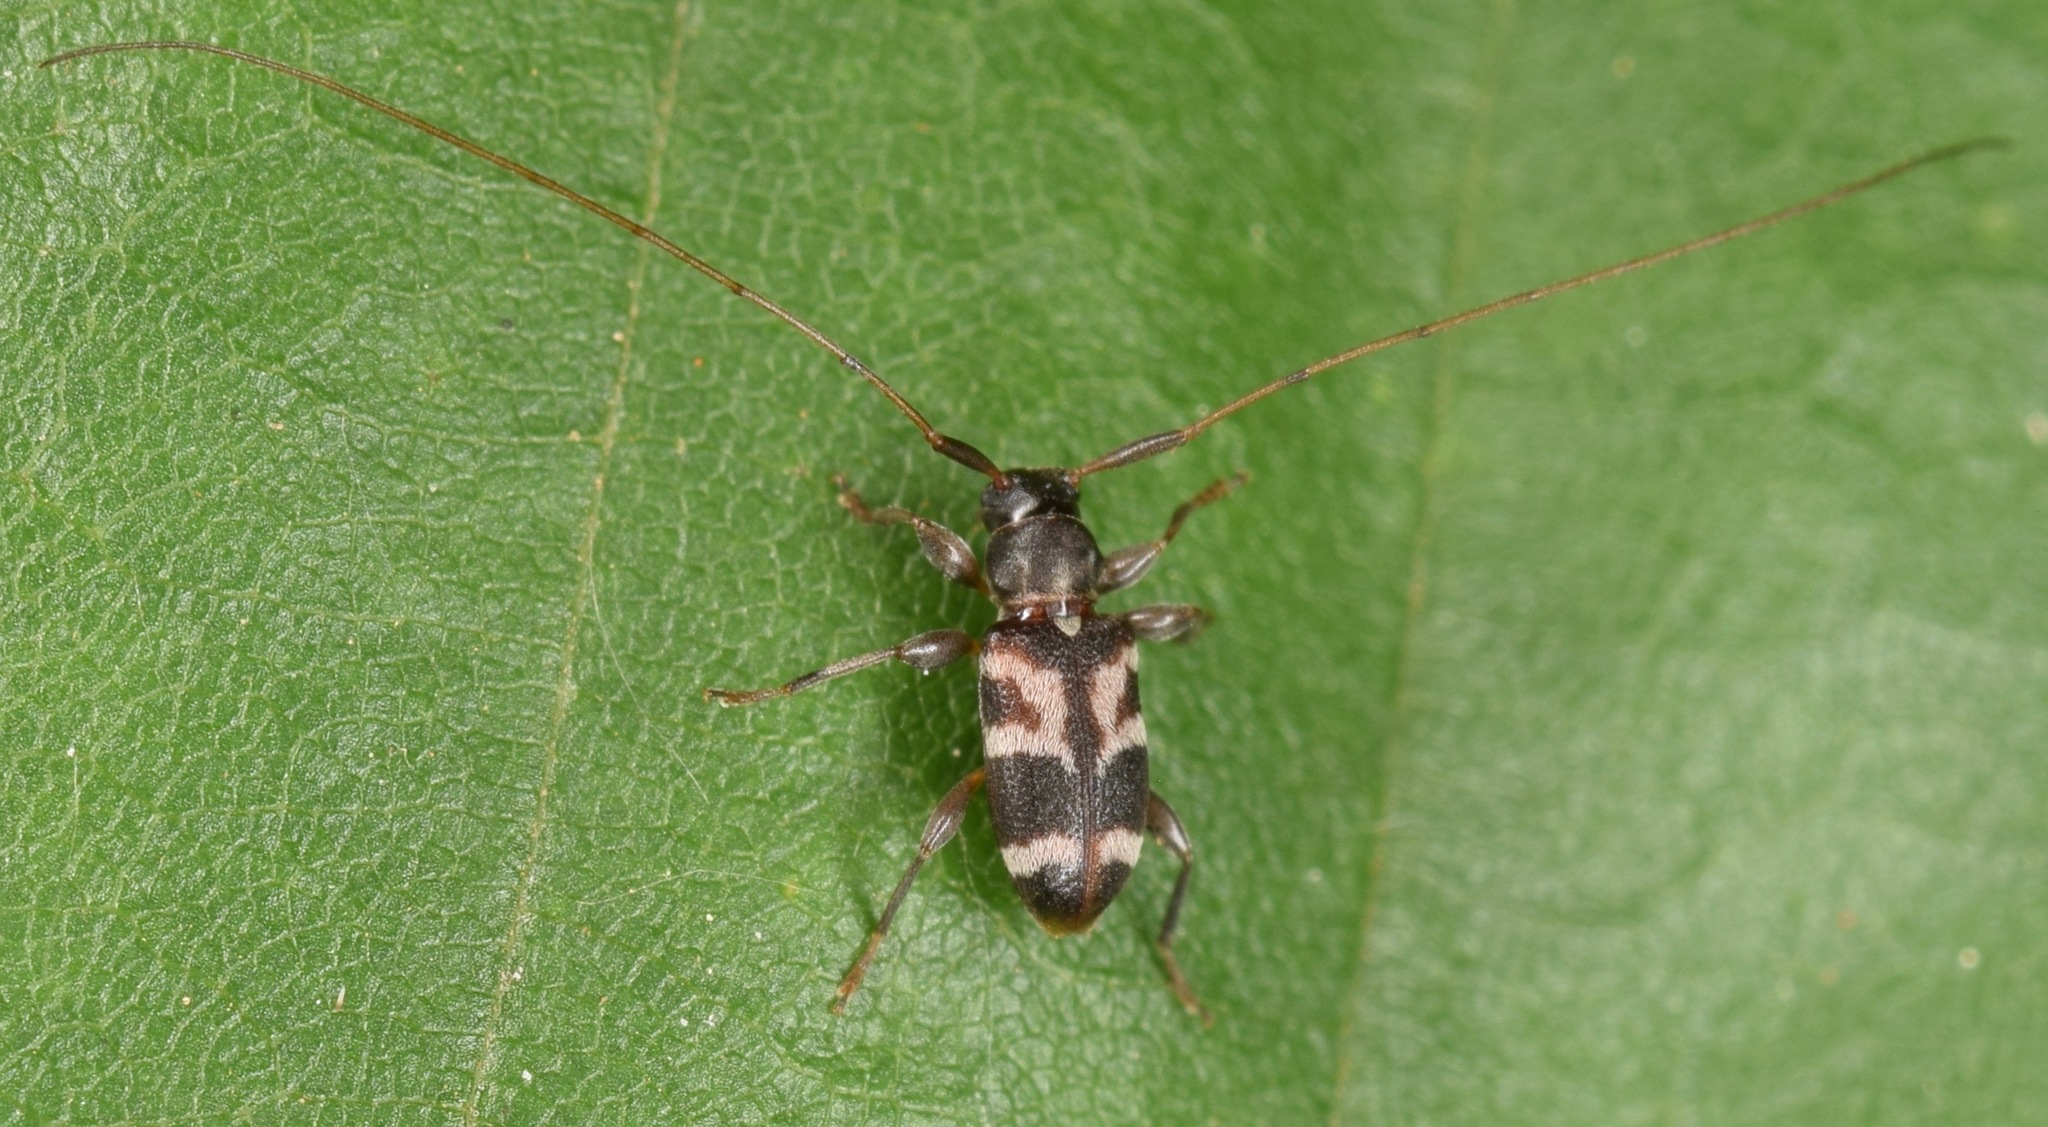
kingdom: Animalia
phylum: Arthropoda
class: Insecta
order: Coleoptera
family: Cerambycidae
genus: Urgleptes
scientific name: Urgleptes facetus
